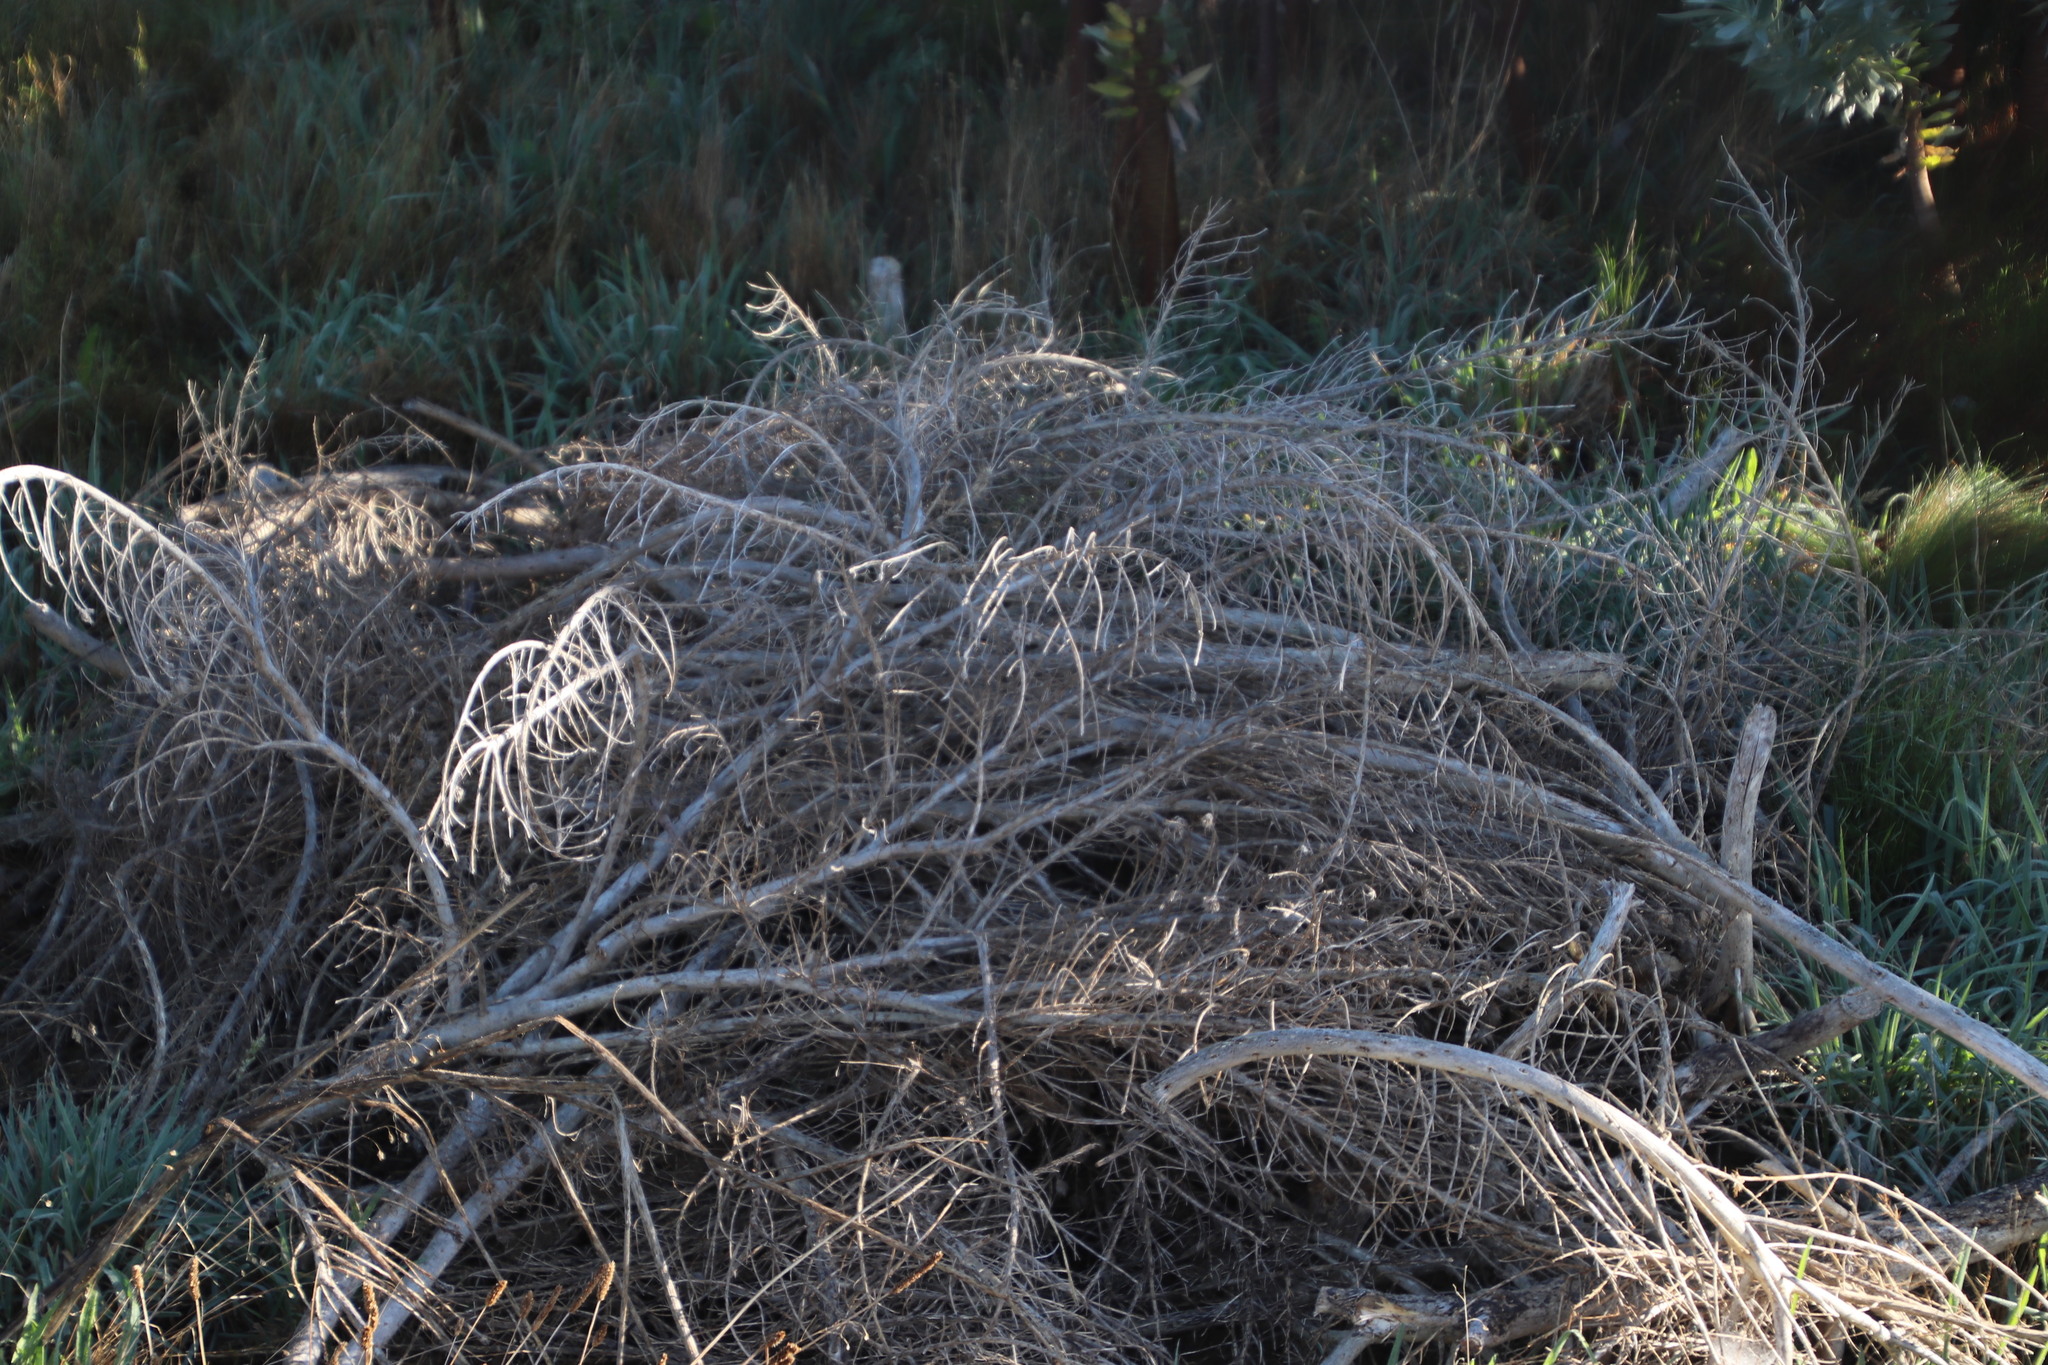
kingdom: Plantae
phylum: Tracheophyta
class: Magnoliopsida
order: Fabales
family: Fabaceae
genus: Aspalathus
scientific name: Aspalathus chenopoda
